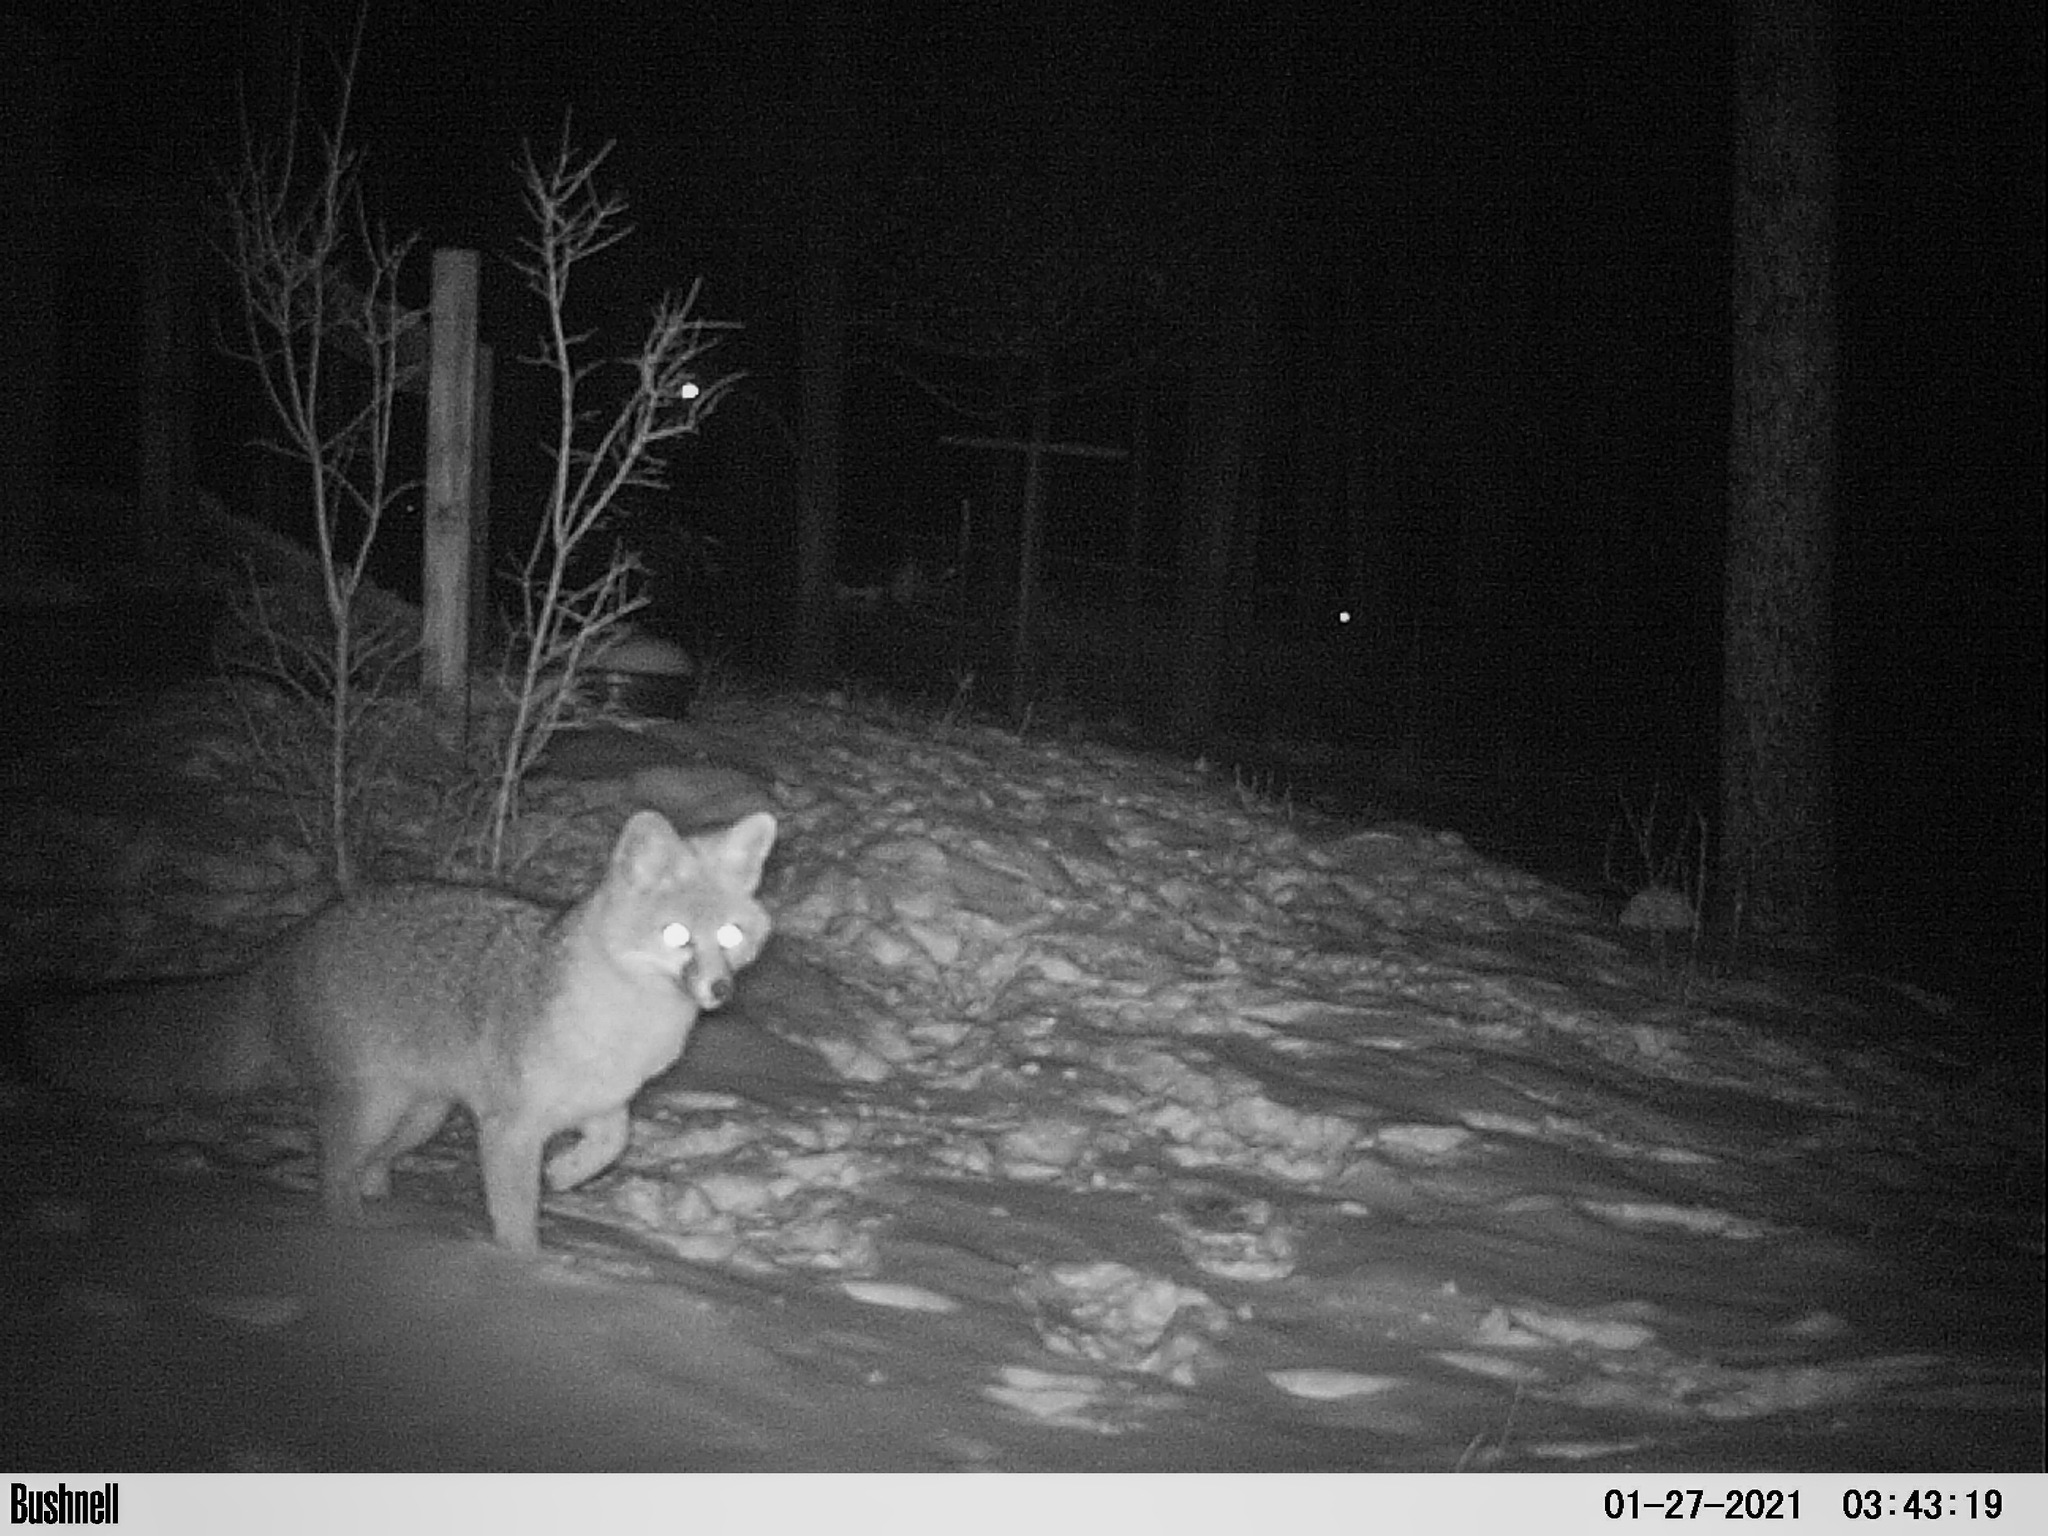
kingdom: Animalia
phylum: Chordata
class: Mammalia
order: Carnivora
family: Canidae
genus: Urocyon
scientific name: Urocyon cinereoargenteus
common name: Gray fox
